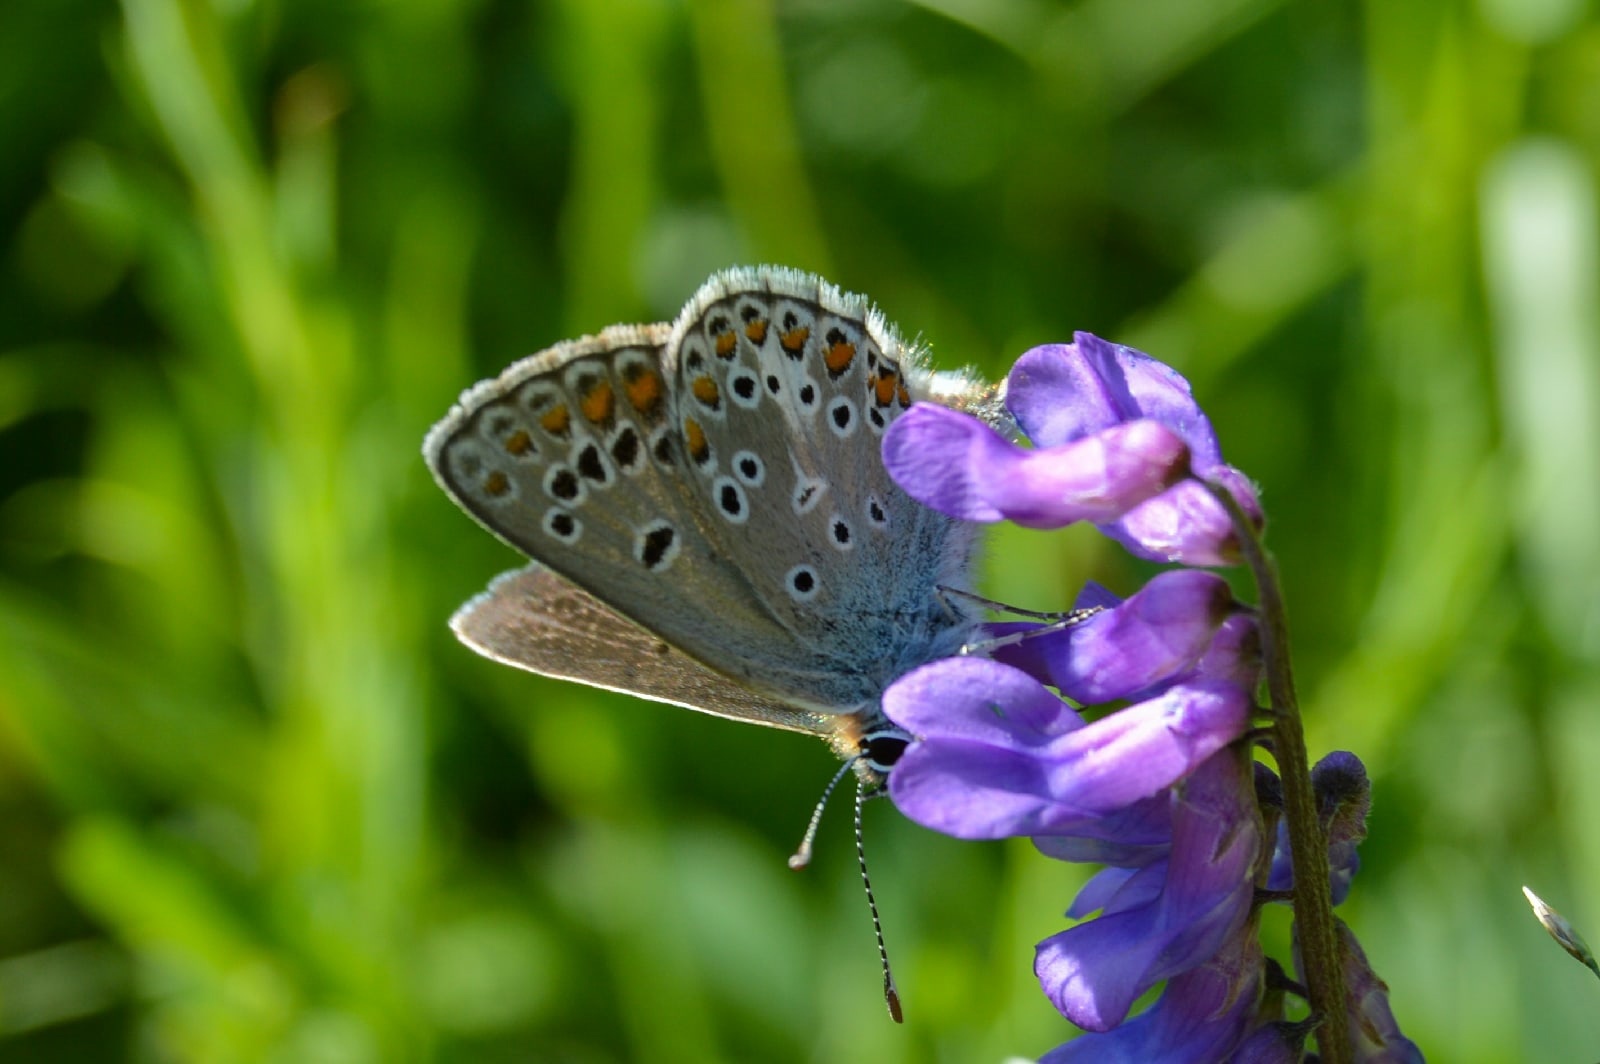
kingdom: Animalia
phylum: Arthropoda
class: Insecta
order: Lepidoptera
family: Lycaenidae
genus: Aricia
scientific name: Aricia artaxerxes
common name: Northern brown argus
